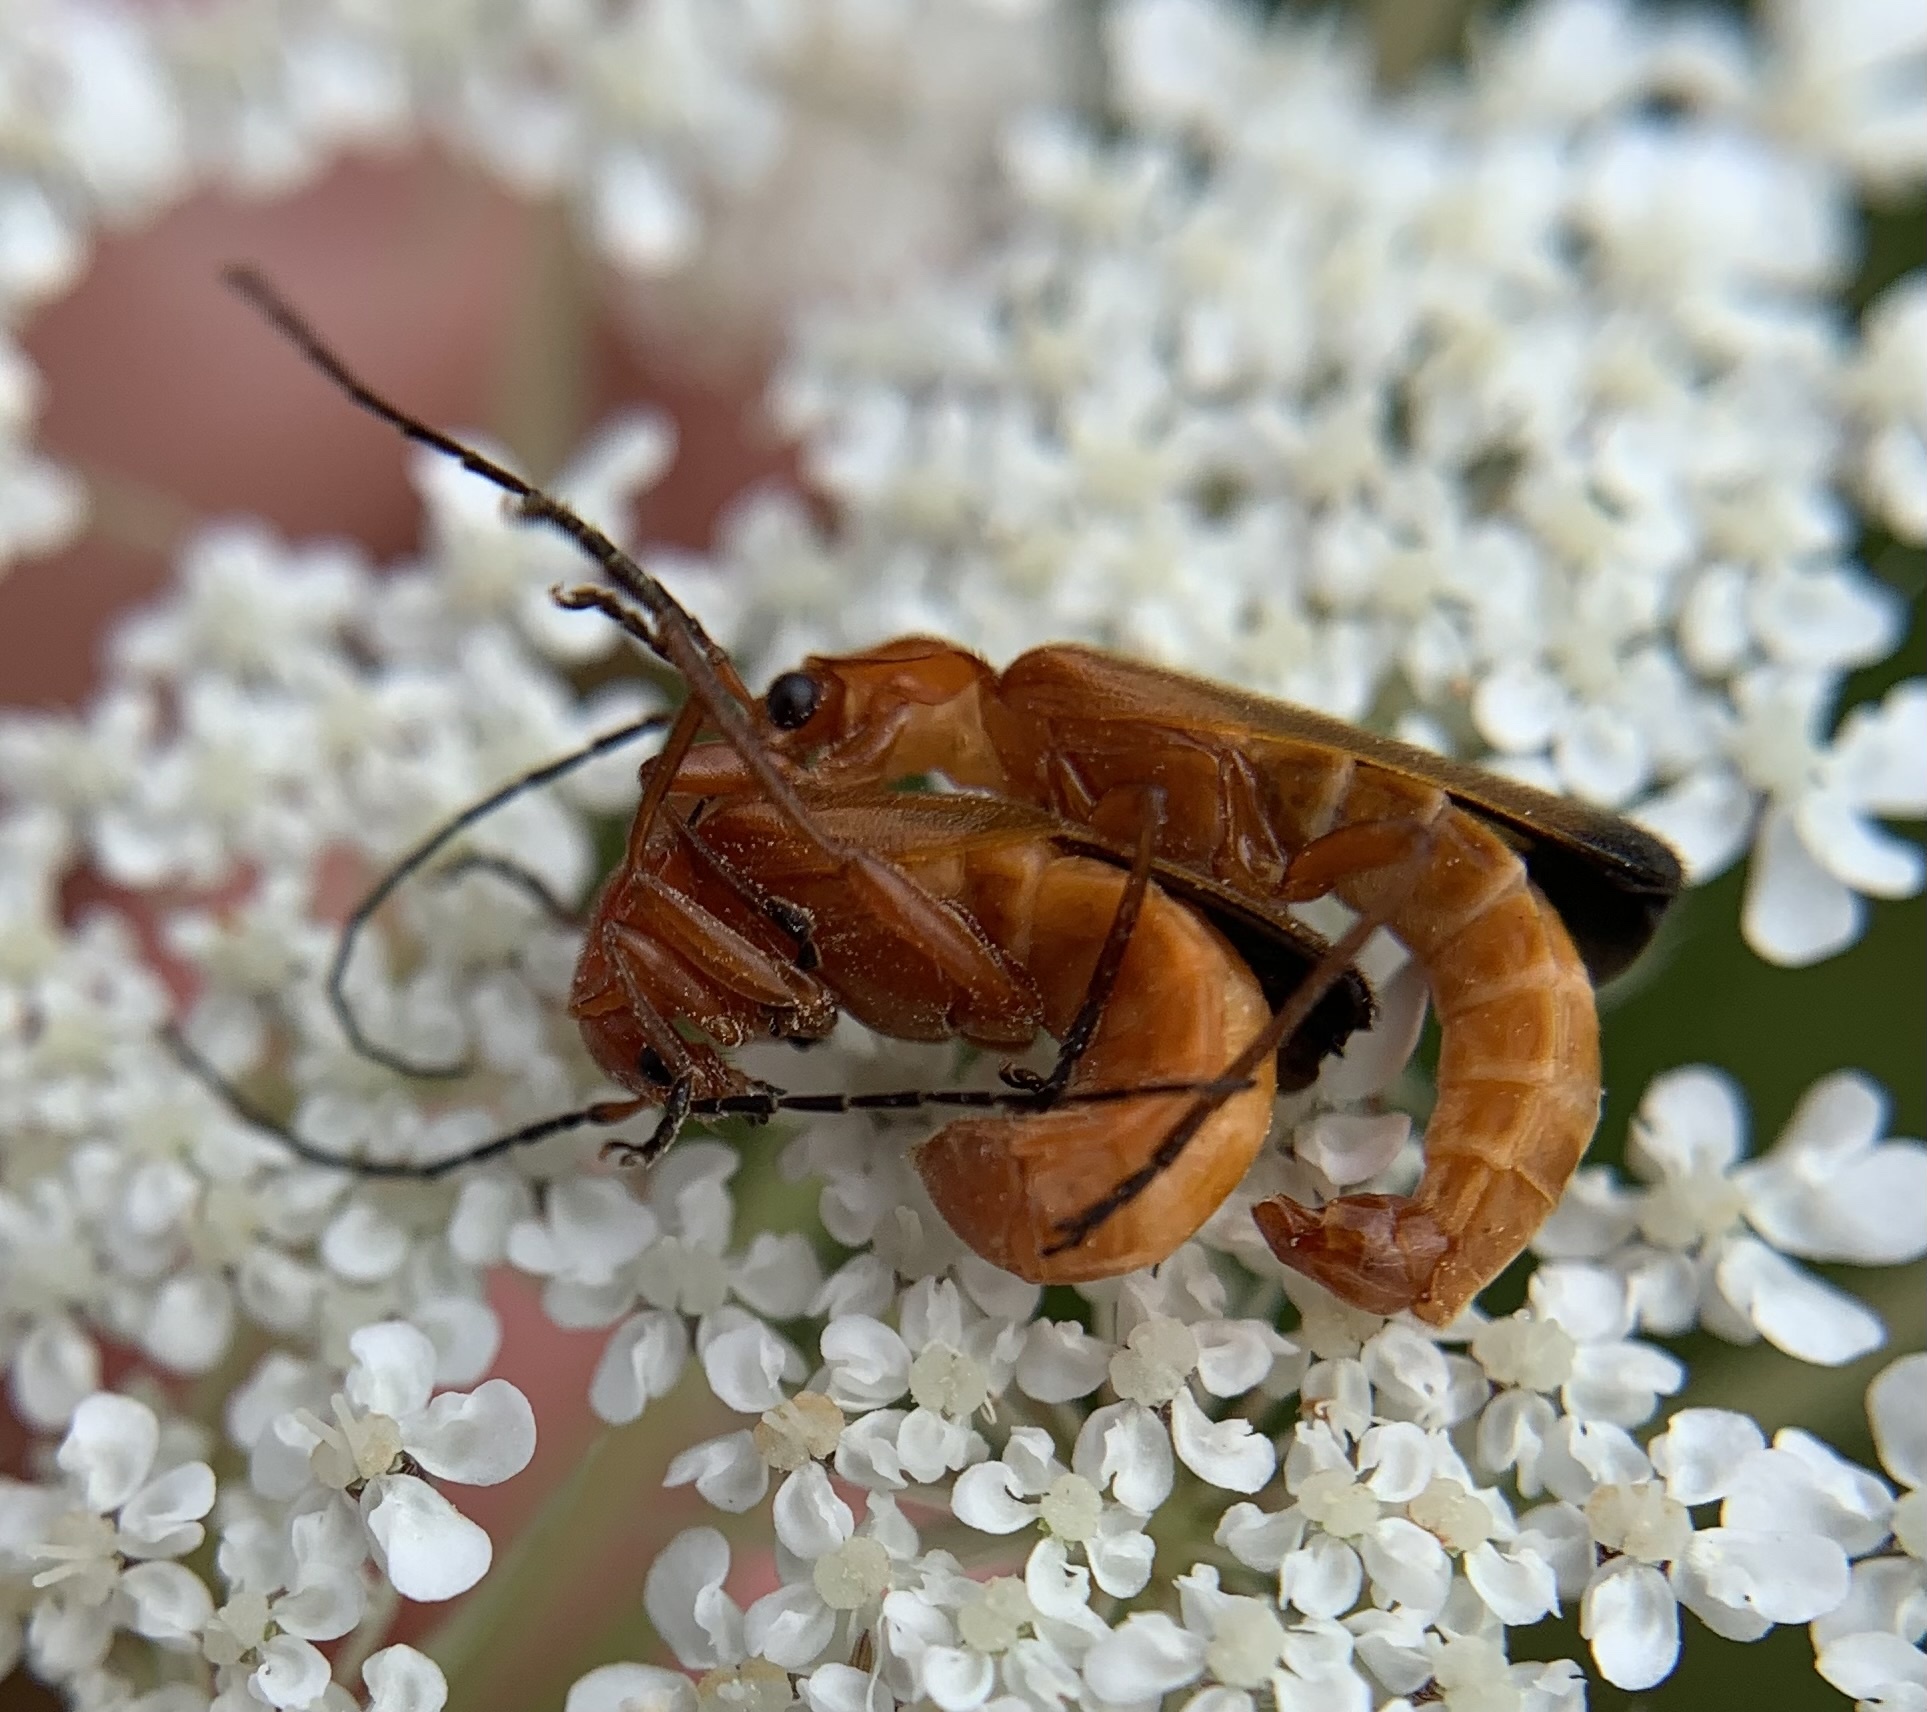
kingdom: Animalia
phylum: Arthropoda
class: Insecta
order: Coleoptera
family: Cantharidae
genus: Rhagonycha
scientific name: Rhagonycha fulva
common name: Common red soldier beetle
